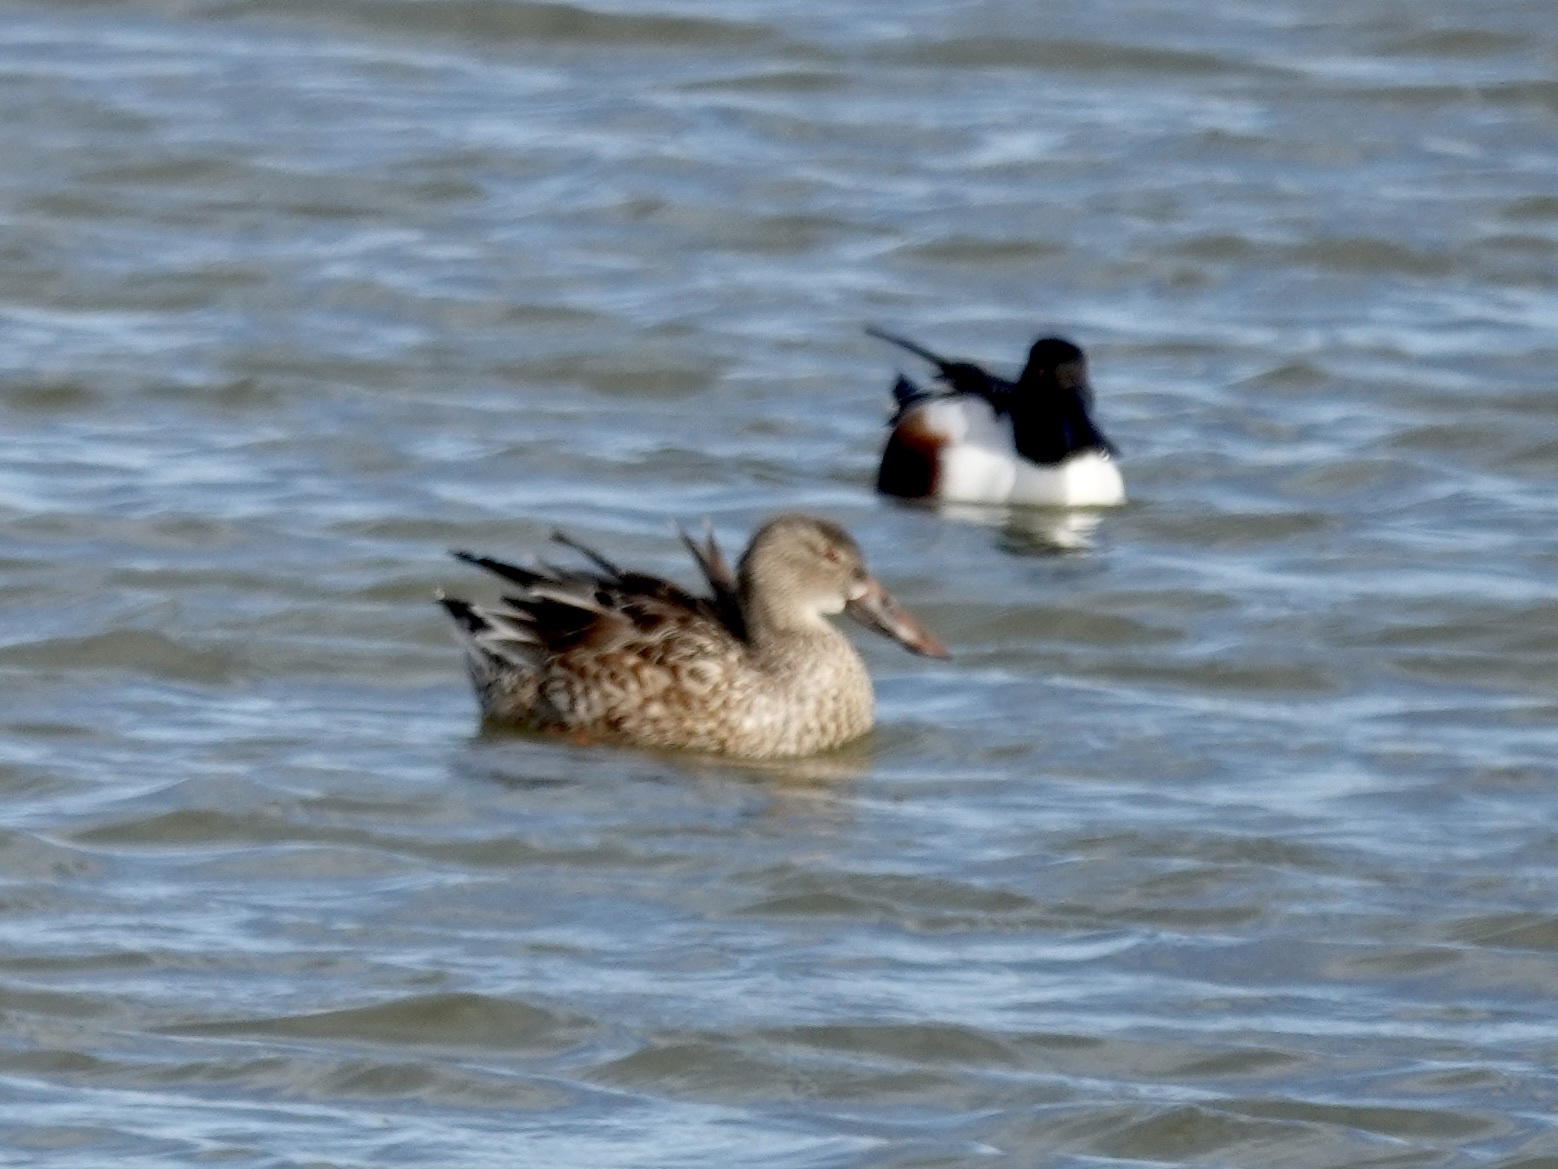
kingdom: Animalia
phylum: Chordata
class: Aves
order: Anseriformes
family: Anatidae
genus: Spatula
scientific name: Spatula clypeata
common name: Northern shoveler
